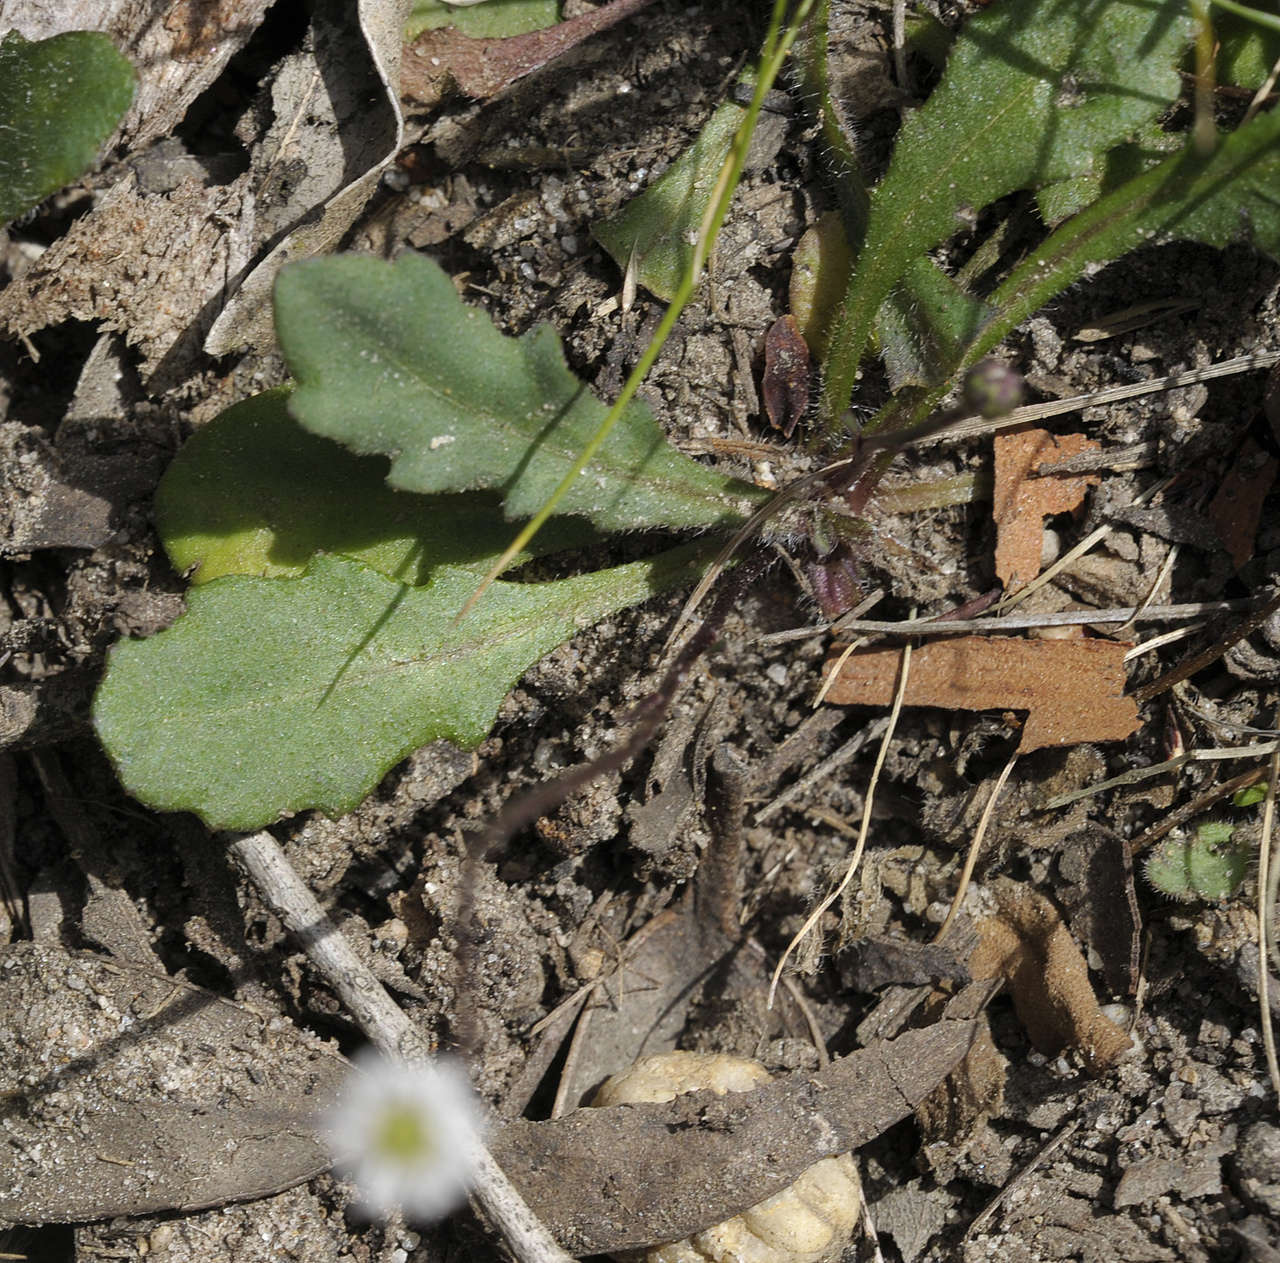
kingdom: Plantae
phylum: Tracheophyta
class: Magnoliopsida
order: Asterales
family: Asteraceae
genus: Lagenophora
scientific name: Lagenophora sublyrata ter
